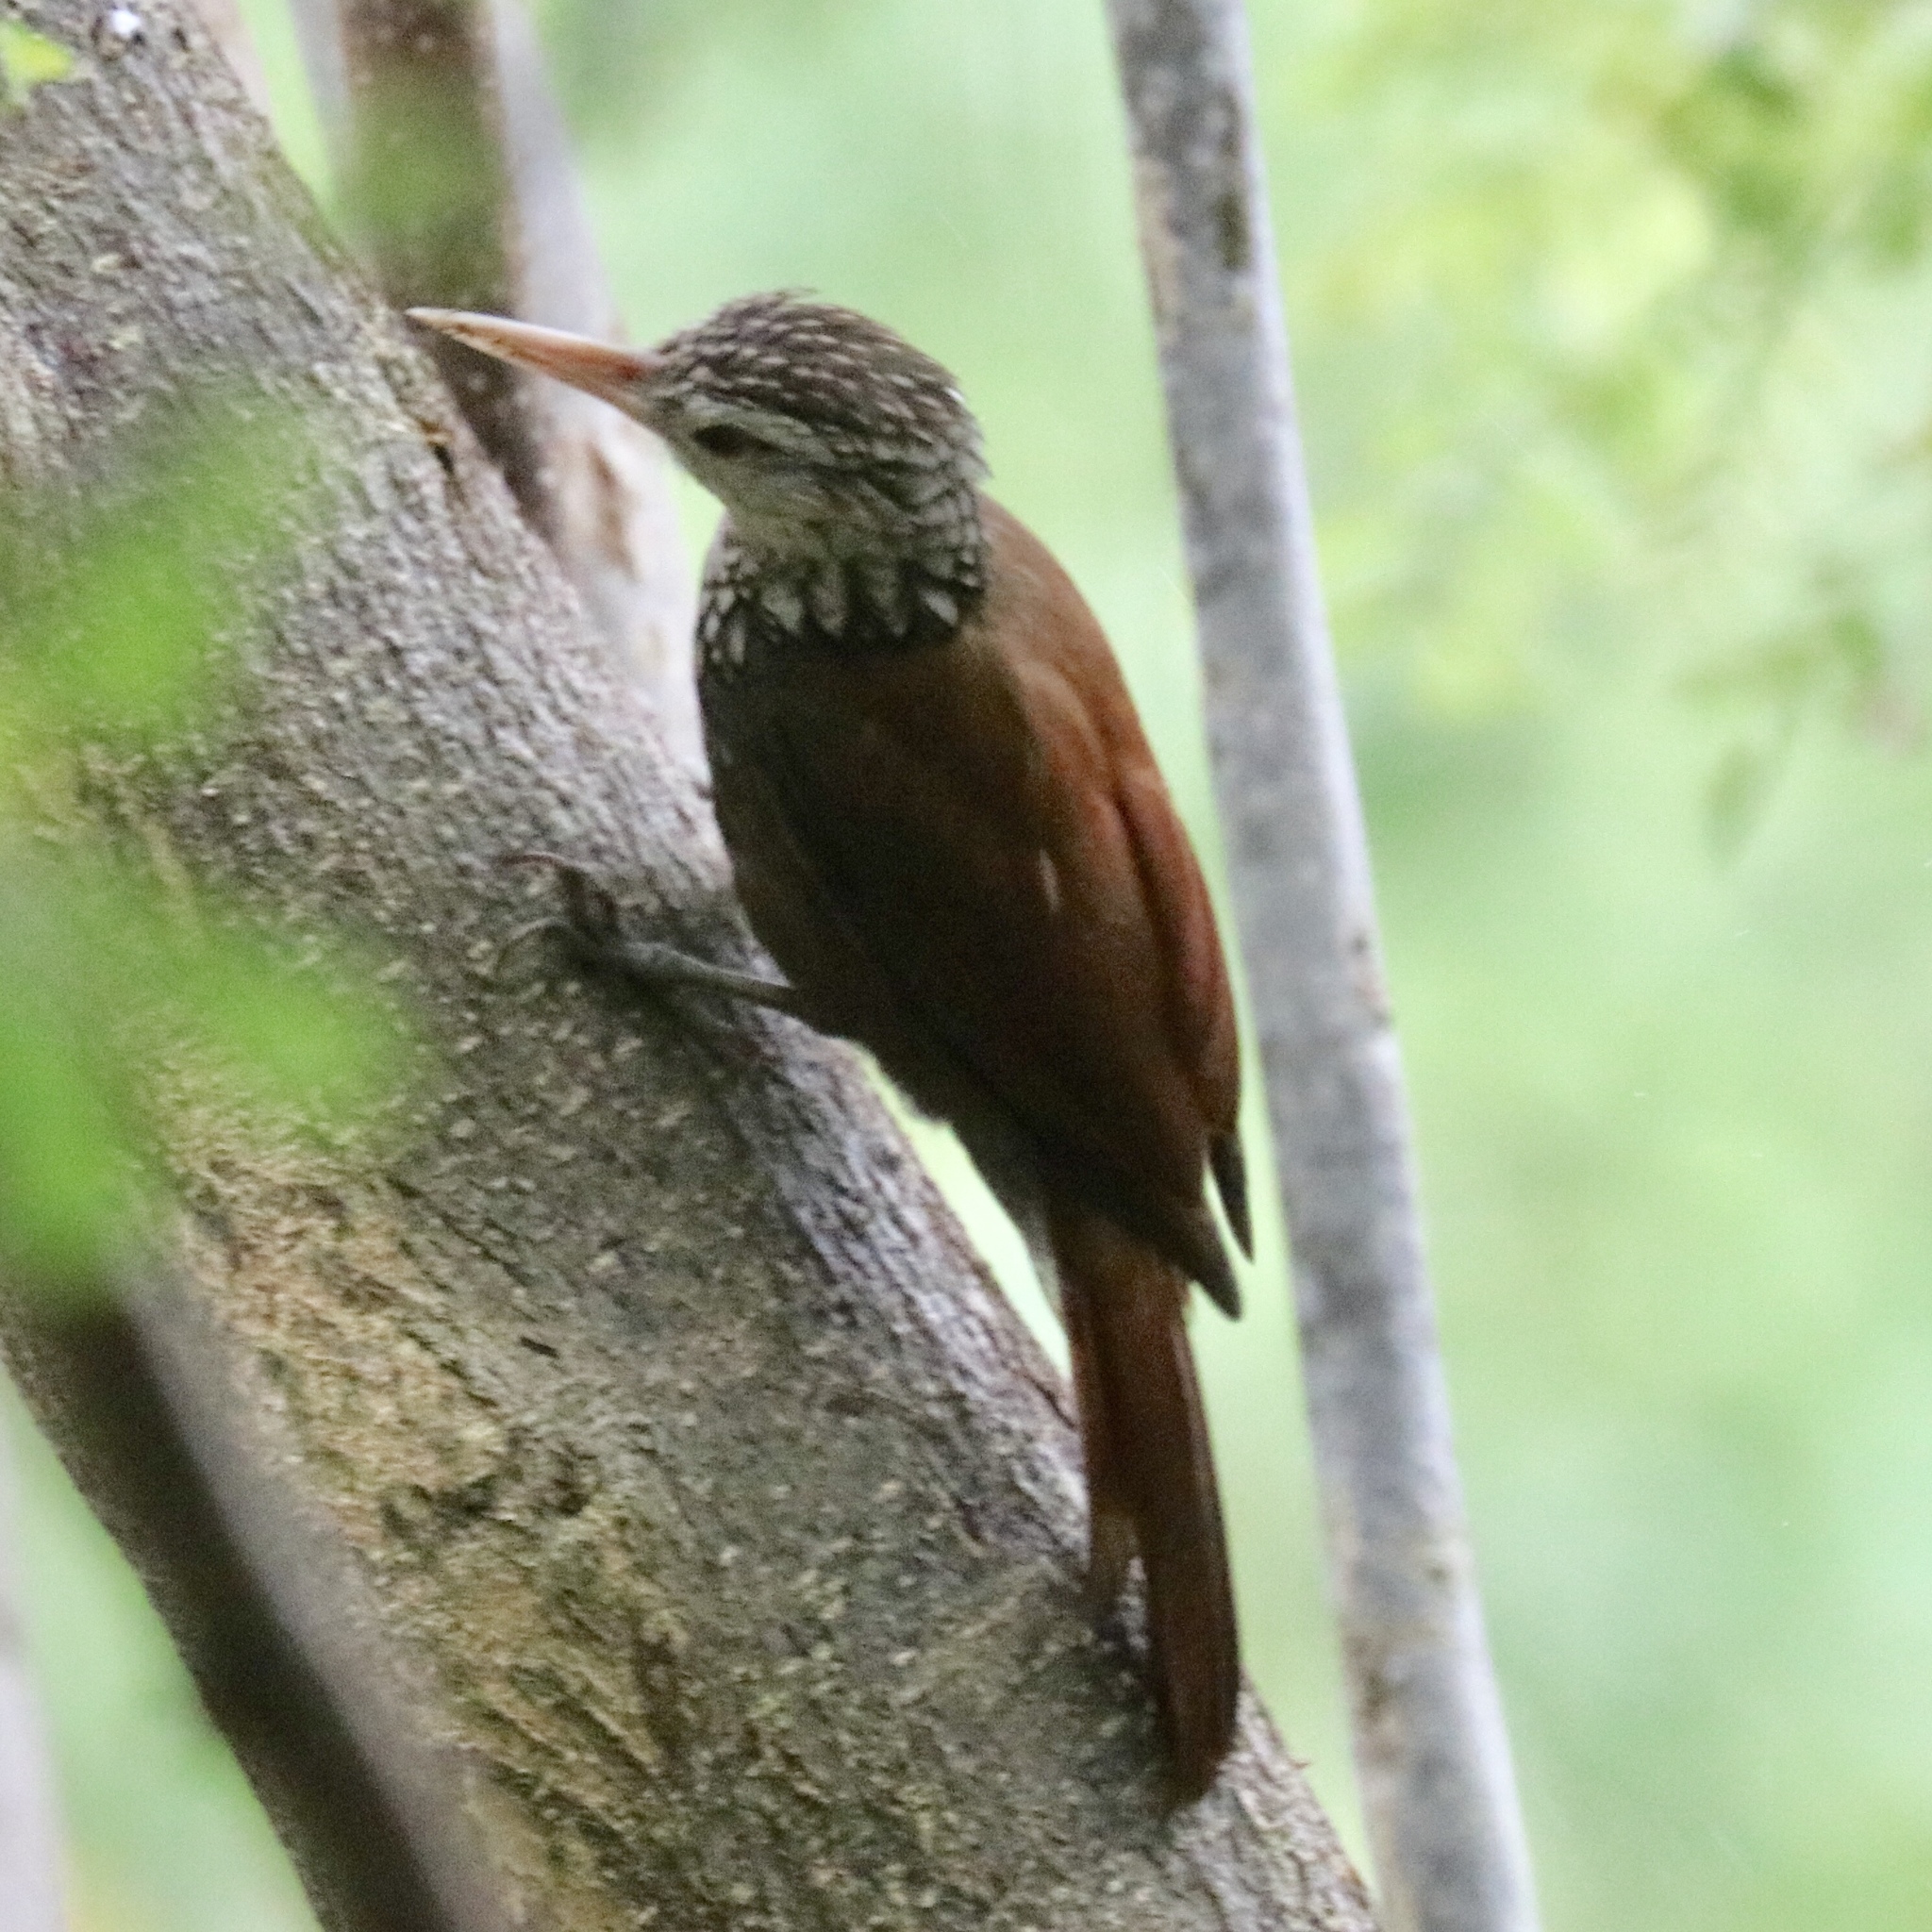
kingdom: Animalia
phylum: Chordata
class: Aves
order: Passeriformes
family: Furnariidae
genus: Xiphorhynchus
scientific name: Xiphorhynchus picus
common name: Straight-billed woodcreeper
